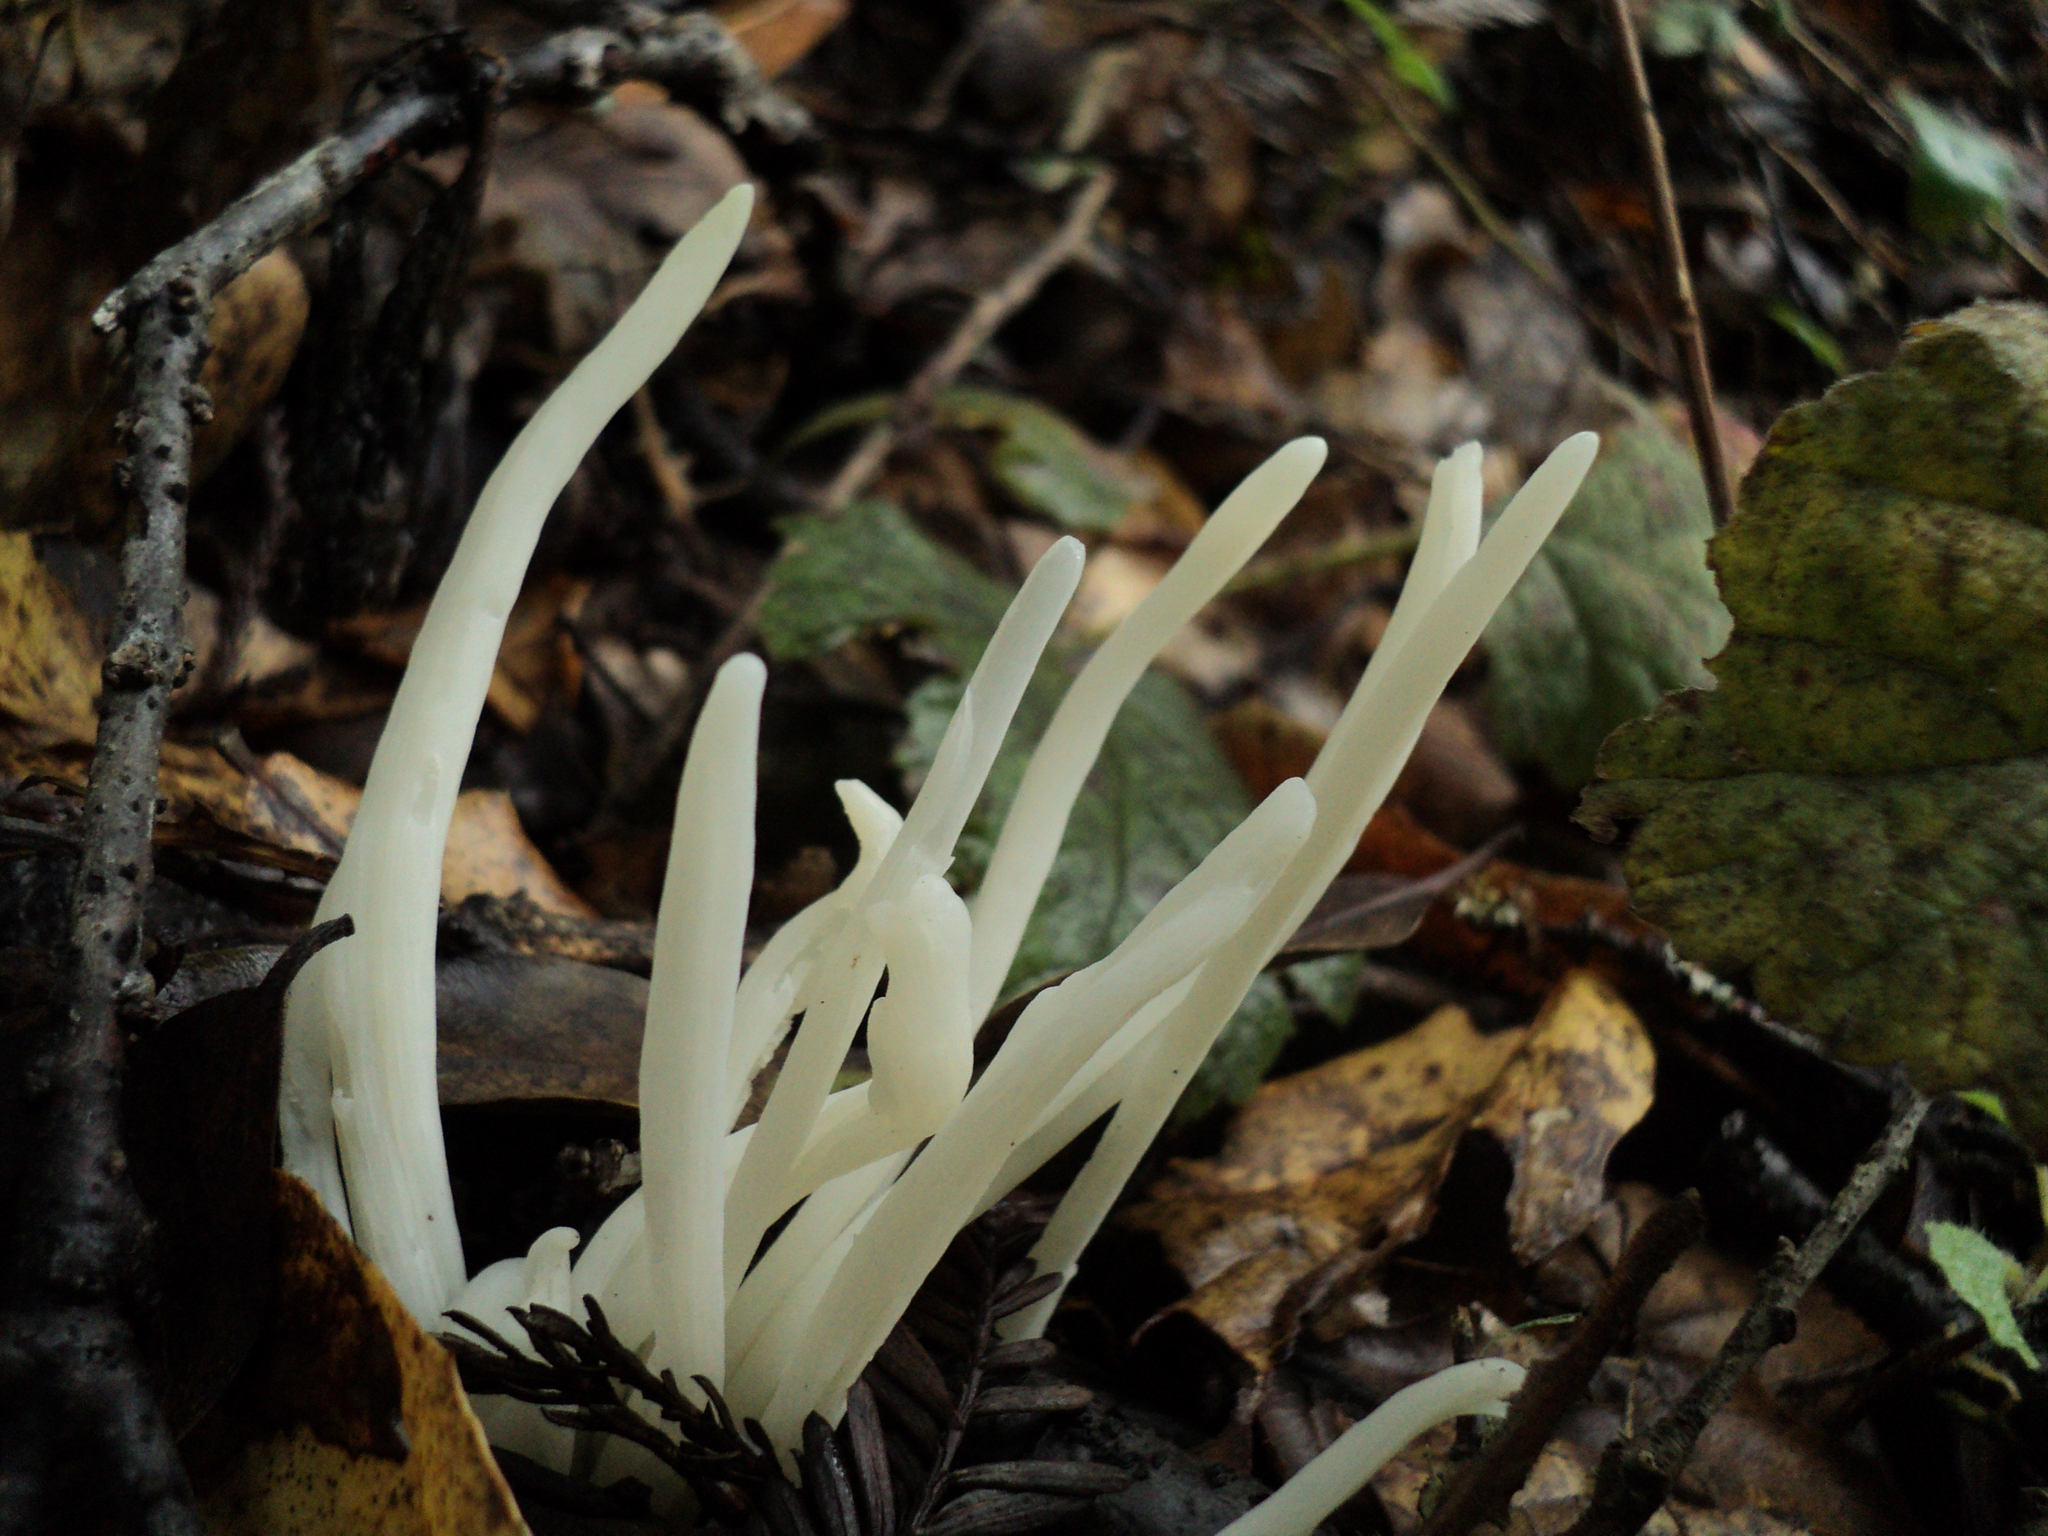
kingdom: Fungi
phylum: Basidiomycota
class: Agaricomycetes
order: Agaricales
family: Clavariaceae
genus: Clavaria
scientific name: Clavaria fragilis
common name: White spindles
